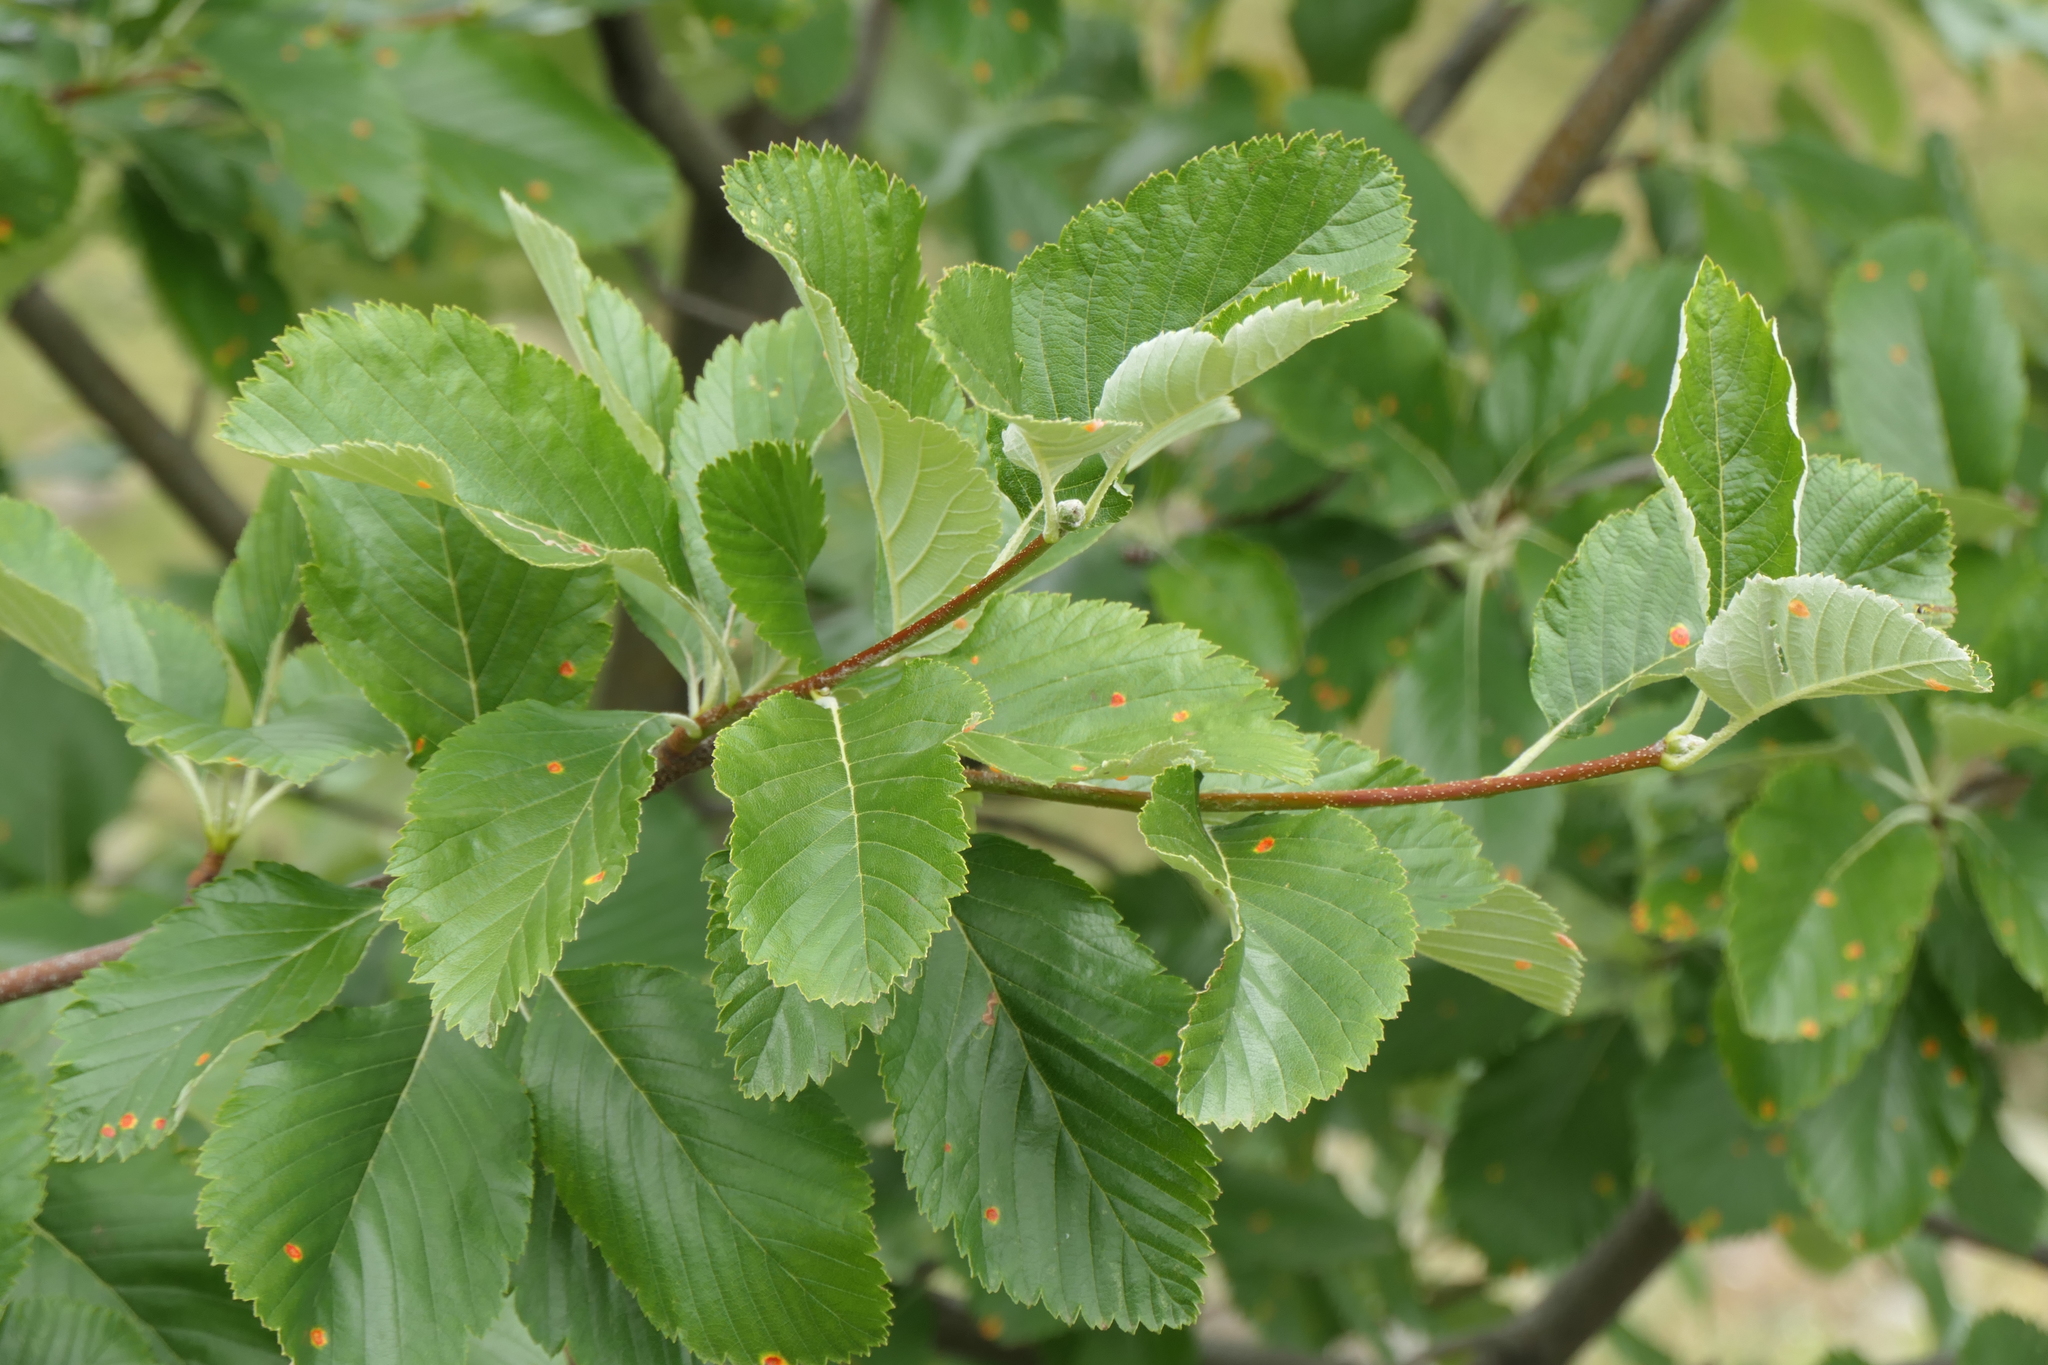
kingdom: Plantae
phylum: Tracheophyta
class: Magnoliopsida
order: Rosales
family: Rosaceae
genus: Aria
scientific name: Aria edulis
